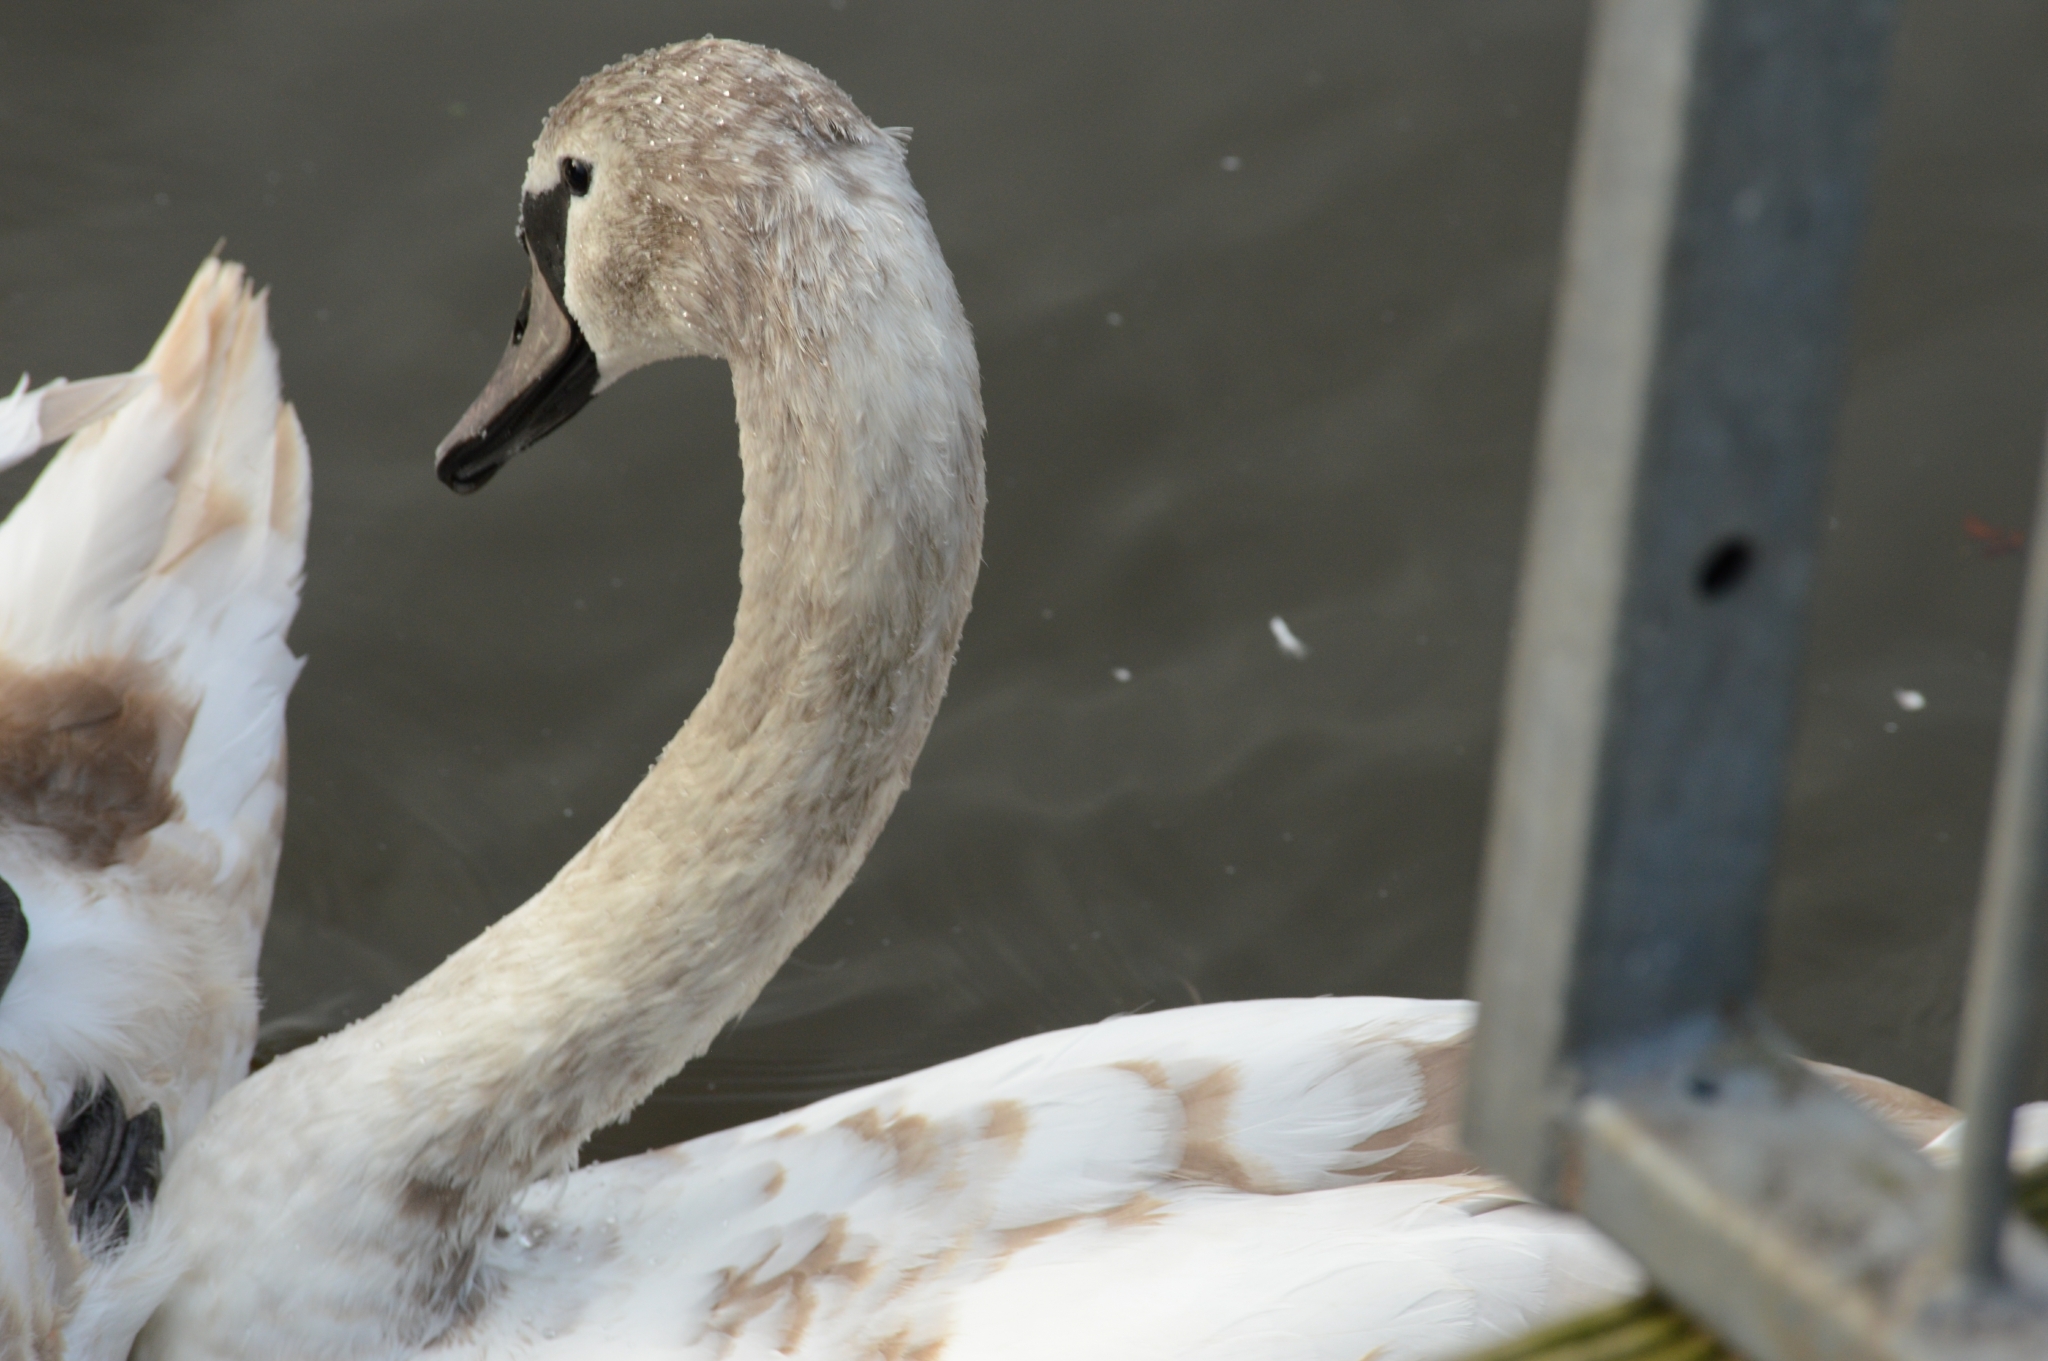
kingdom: Animalia
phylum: Chordata
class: Aves
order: Anseriformes
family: Anatidae
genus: Cygnus
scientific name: Cygnus olor
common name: Mute swan
